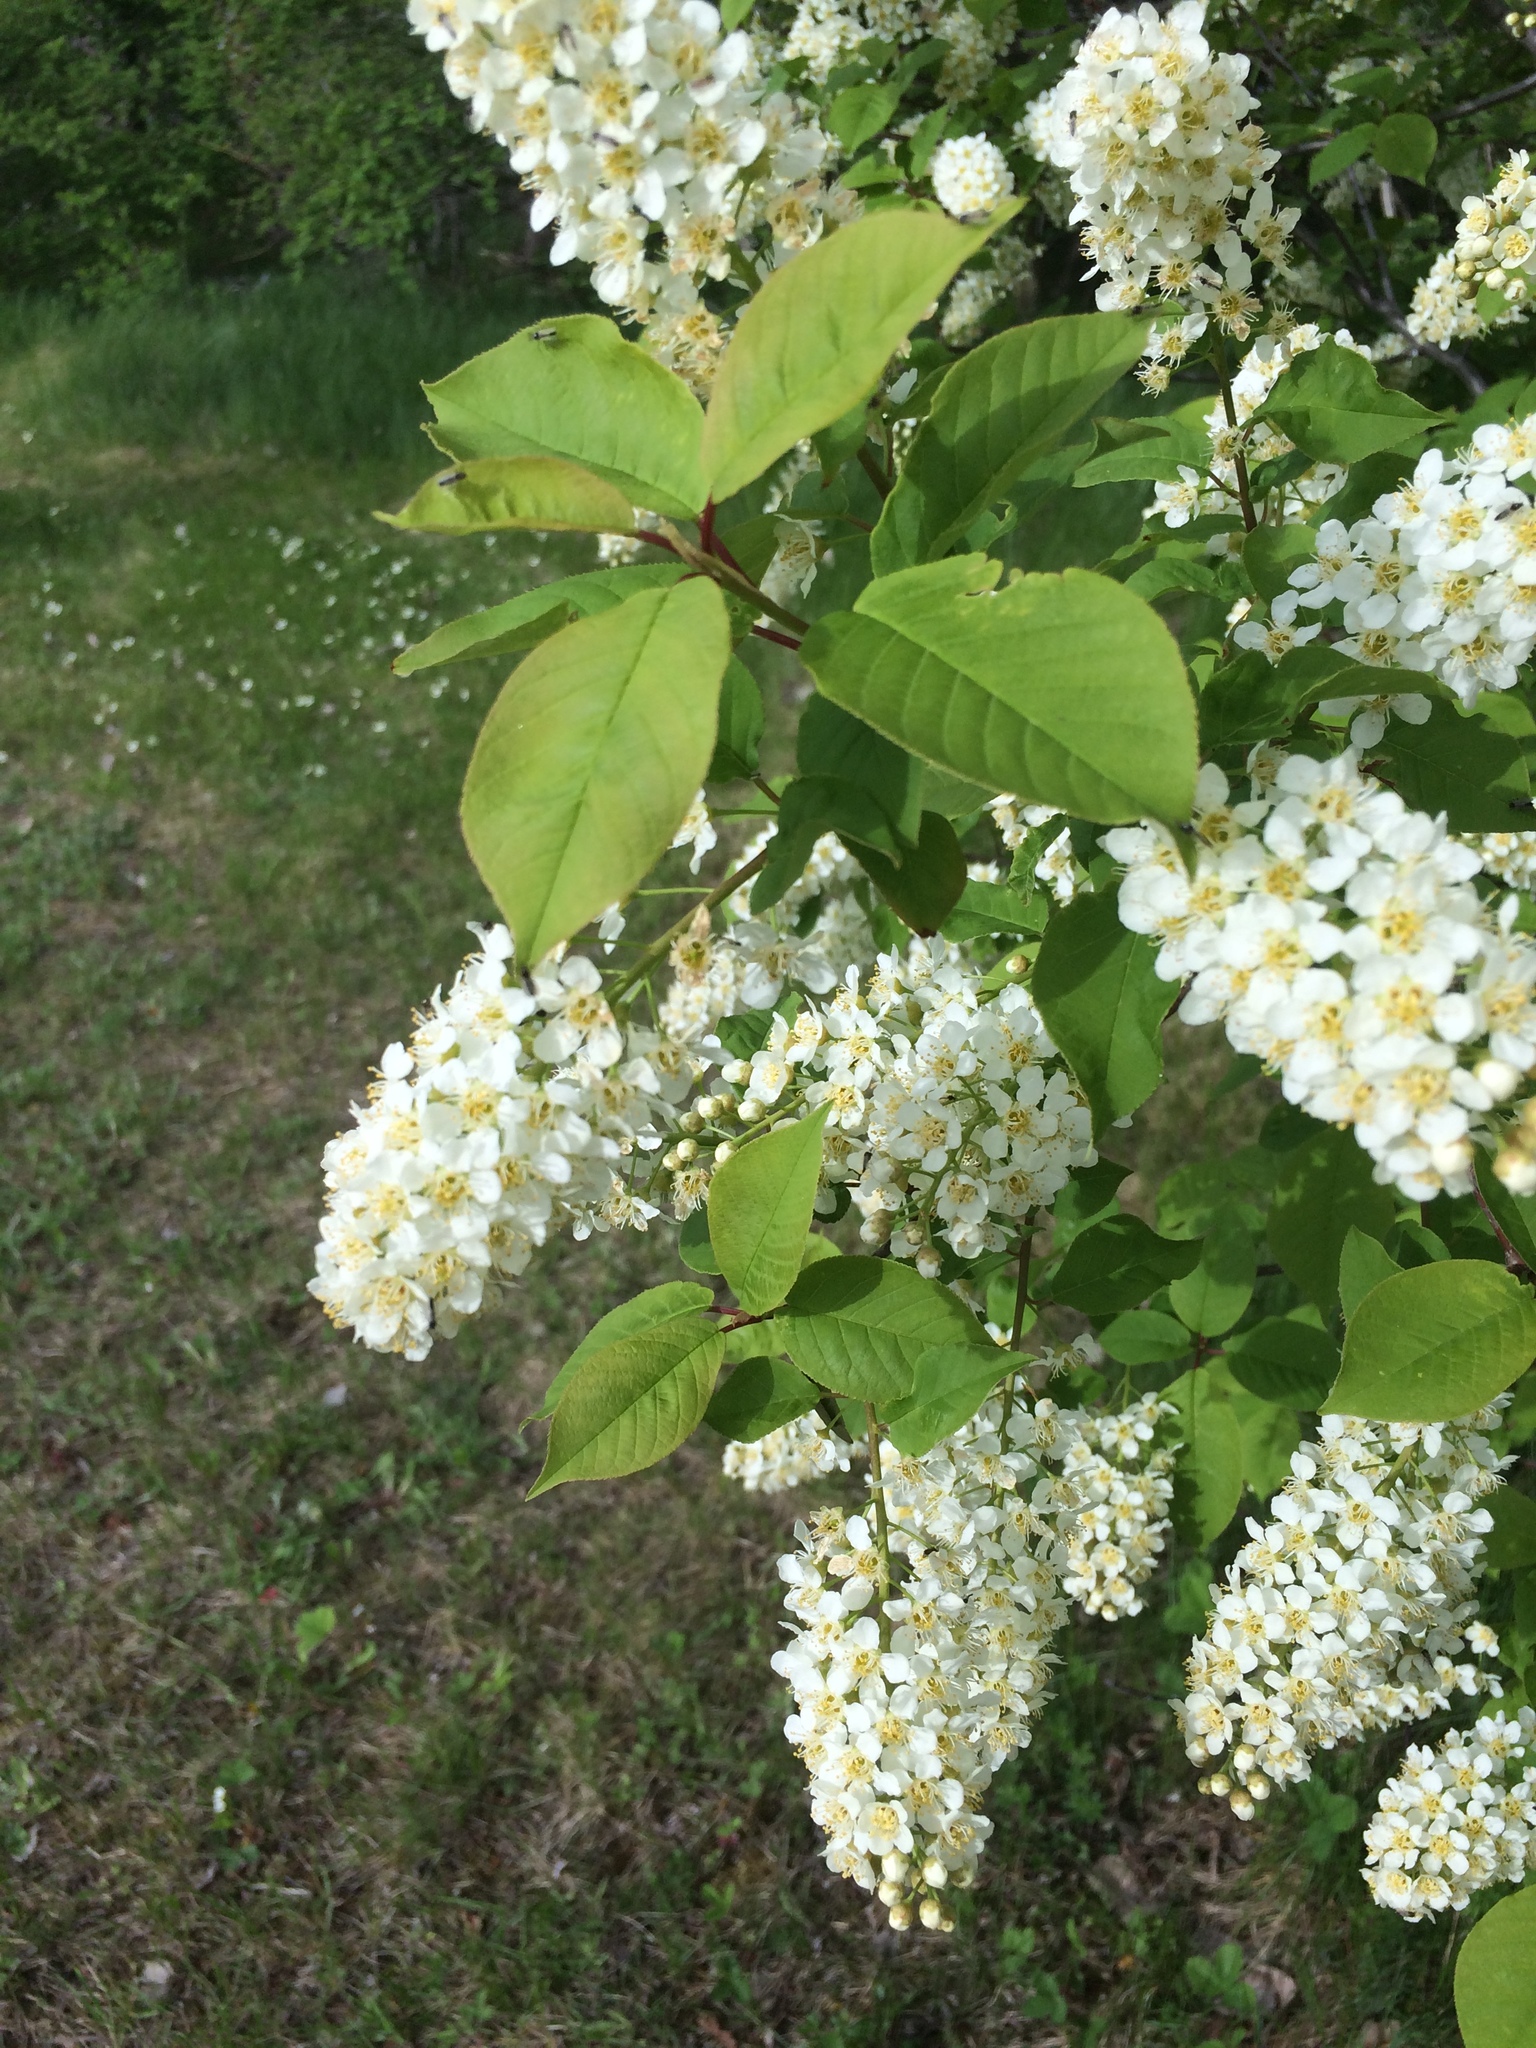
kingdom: Plantae
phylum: Tracheophyta
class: Magnoliopsida
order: Rosales
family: Rosaceae
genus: Prunus
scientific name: Prunus virginiana
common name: Chokecherry
